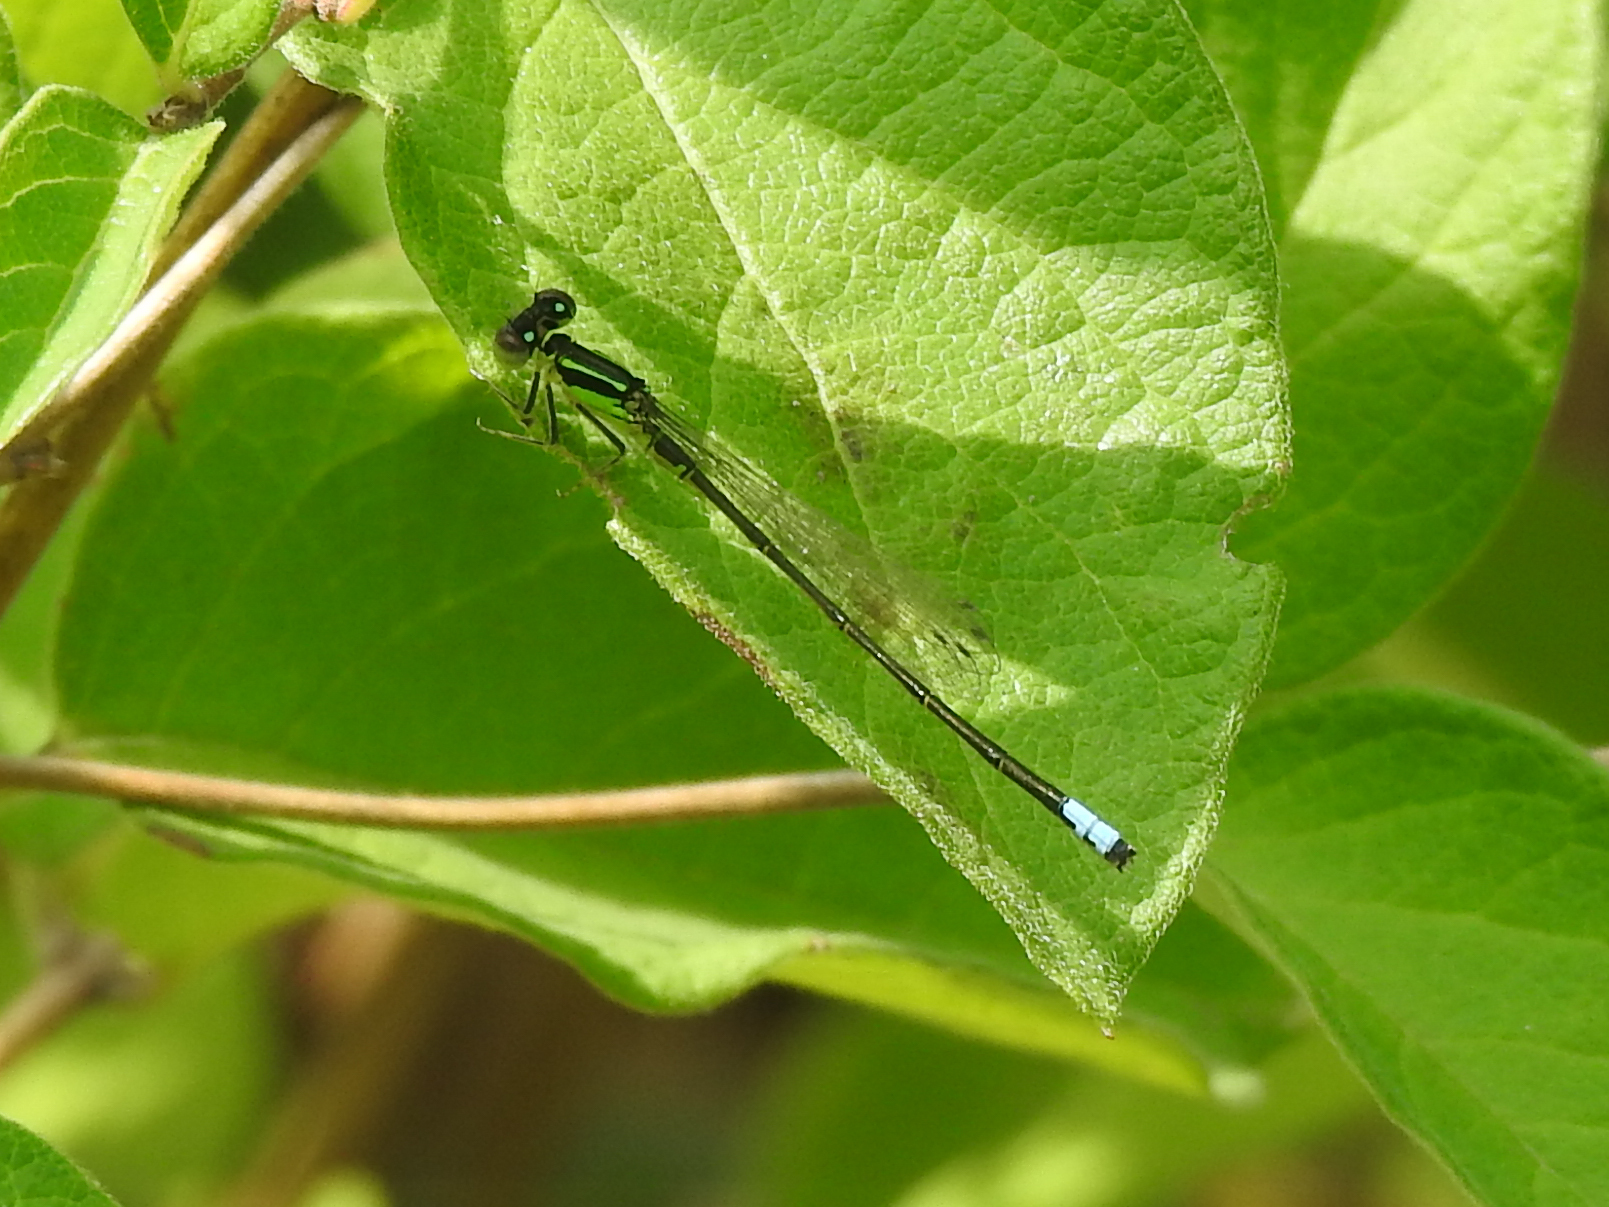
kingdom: Animalia
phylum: Arthropoda
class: Insecta
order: Odonata
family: Coenagrionidae
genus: Ischnura
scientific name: Ischnura verticalis
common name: Eastern forktail
